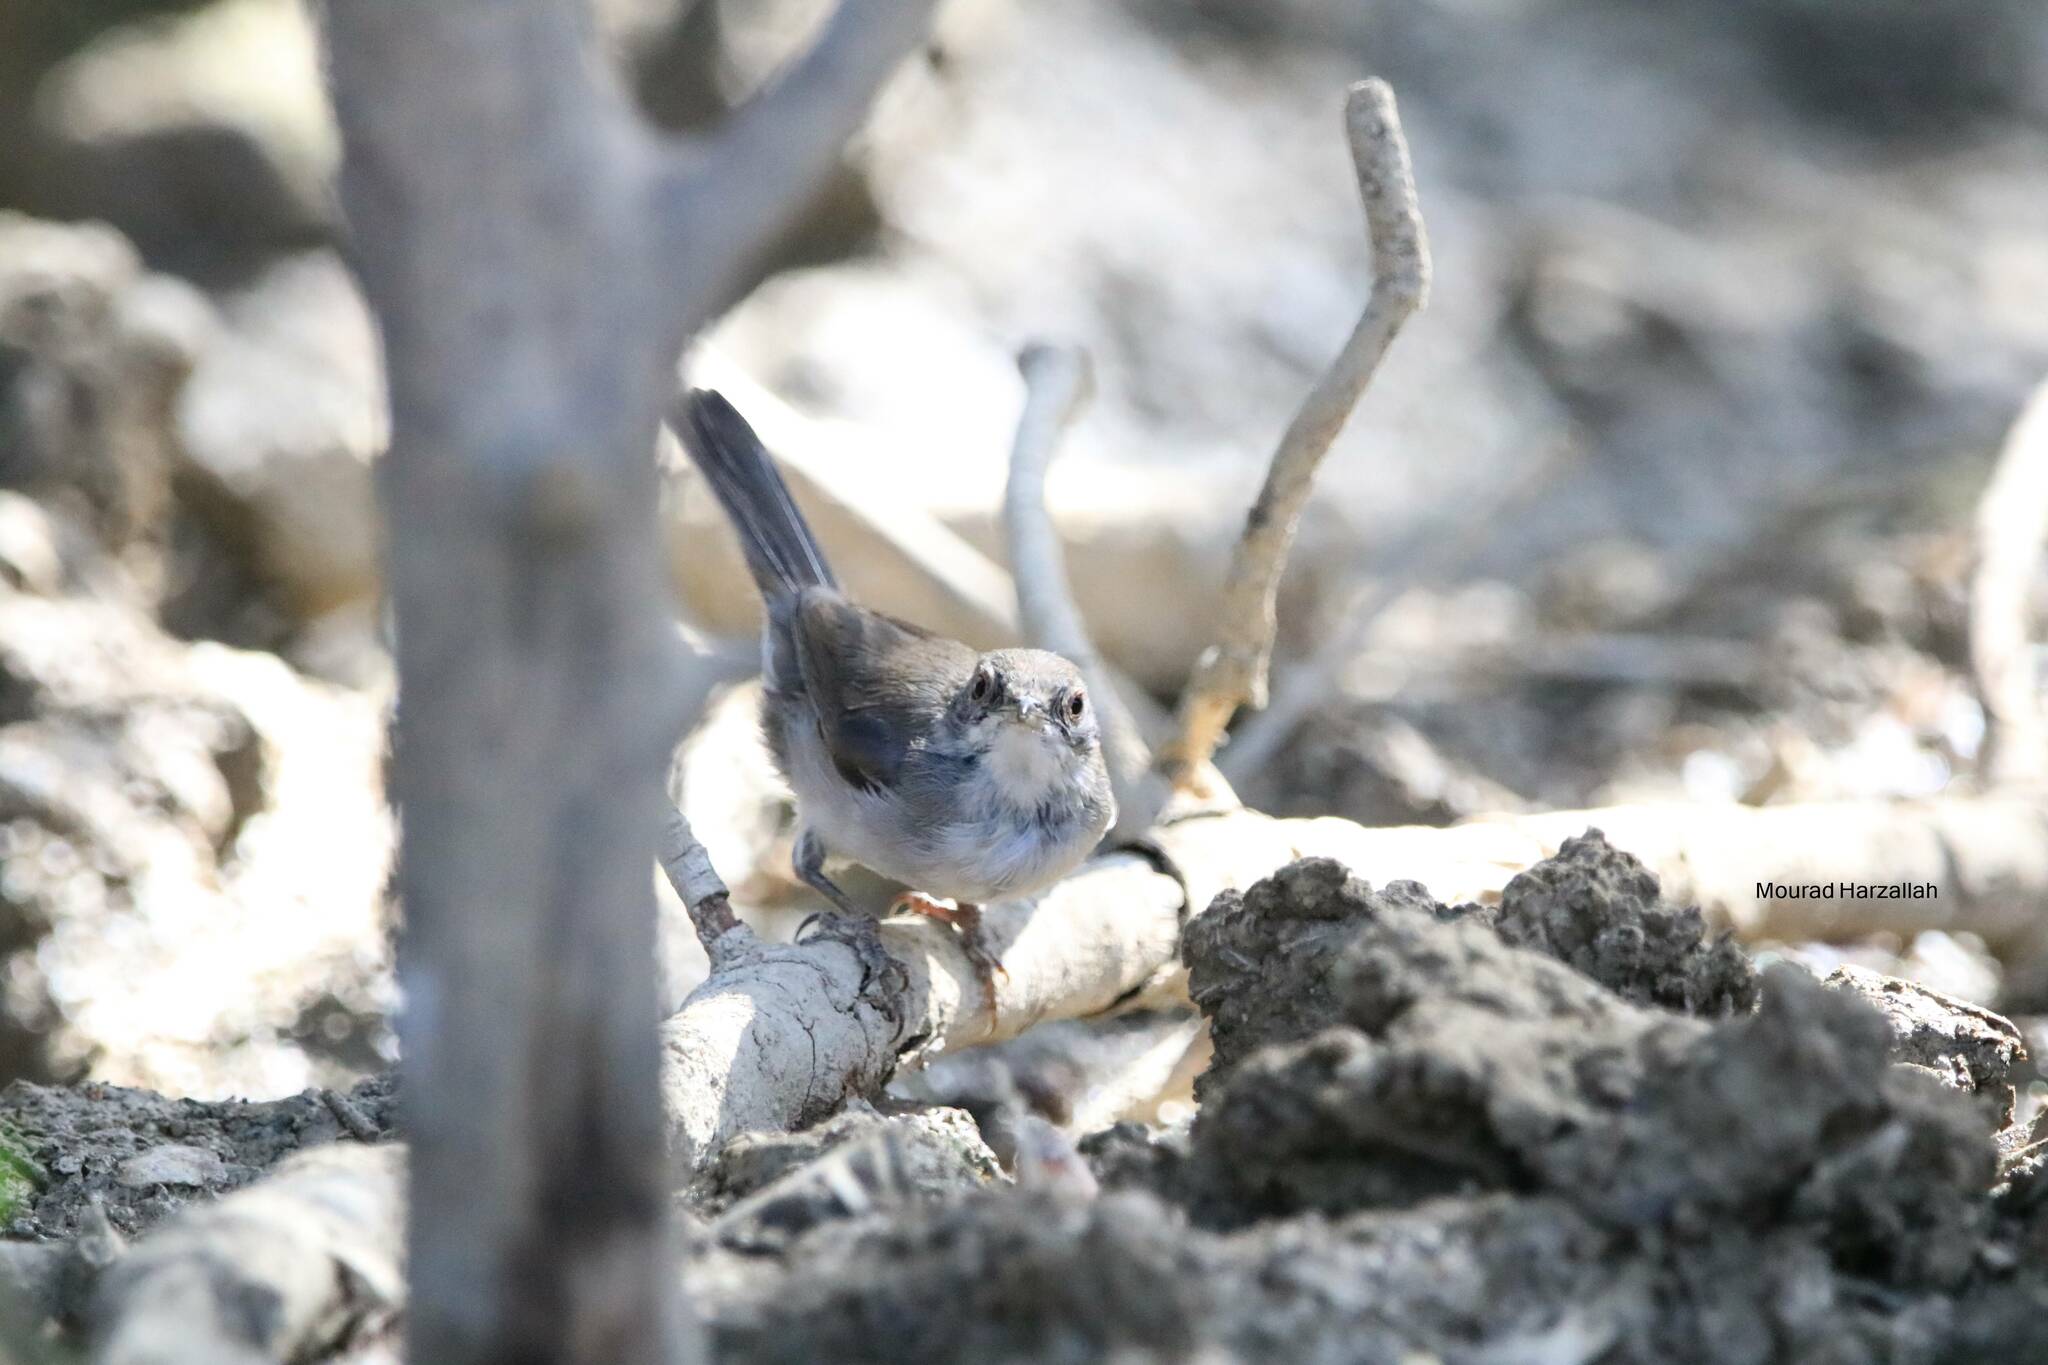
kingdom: Animalia
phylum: Chordata
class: Aves
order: Passeriformes
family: Sylviidae
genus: Curruca
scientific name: Curruca melanocephala
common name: Sardinian warbler
